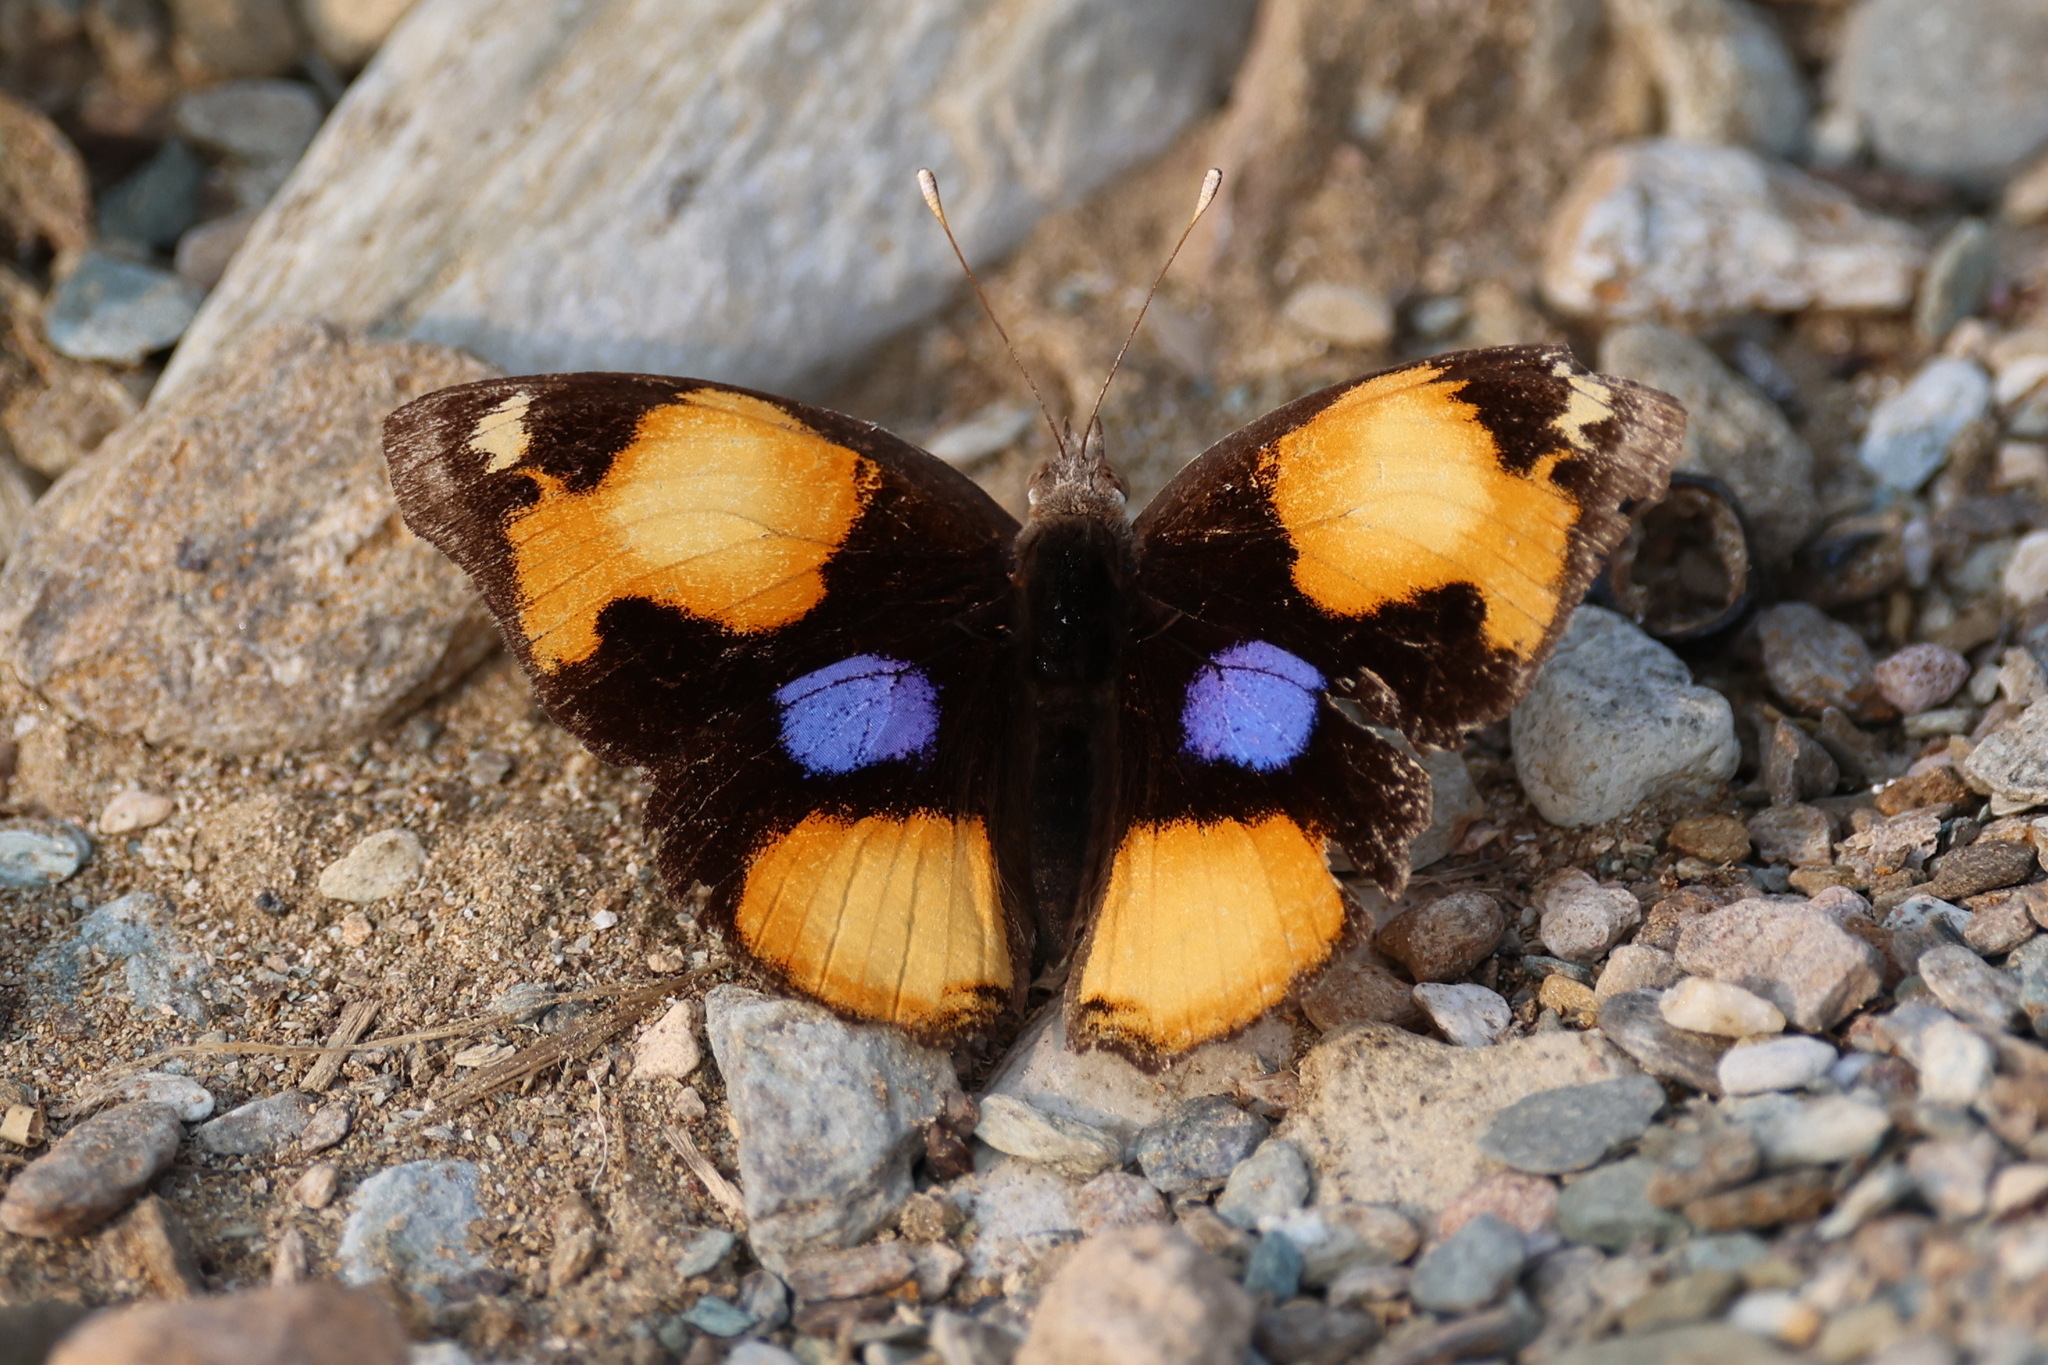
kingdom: Animalia
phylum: Arthropoda
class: Insecta
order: Lepidoptera
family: Nymphalidae
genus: Junonia
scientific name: Junonia hierta
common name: Yellow pansy
